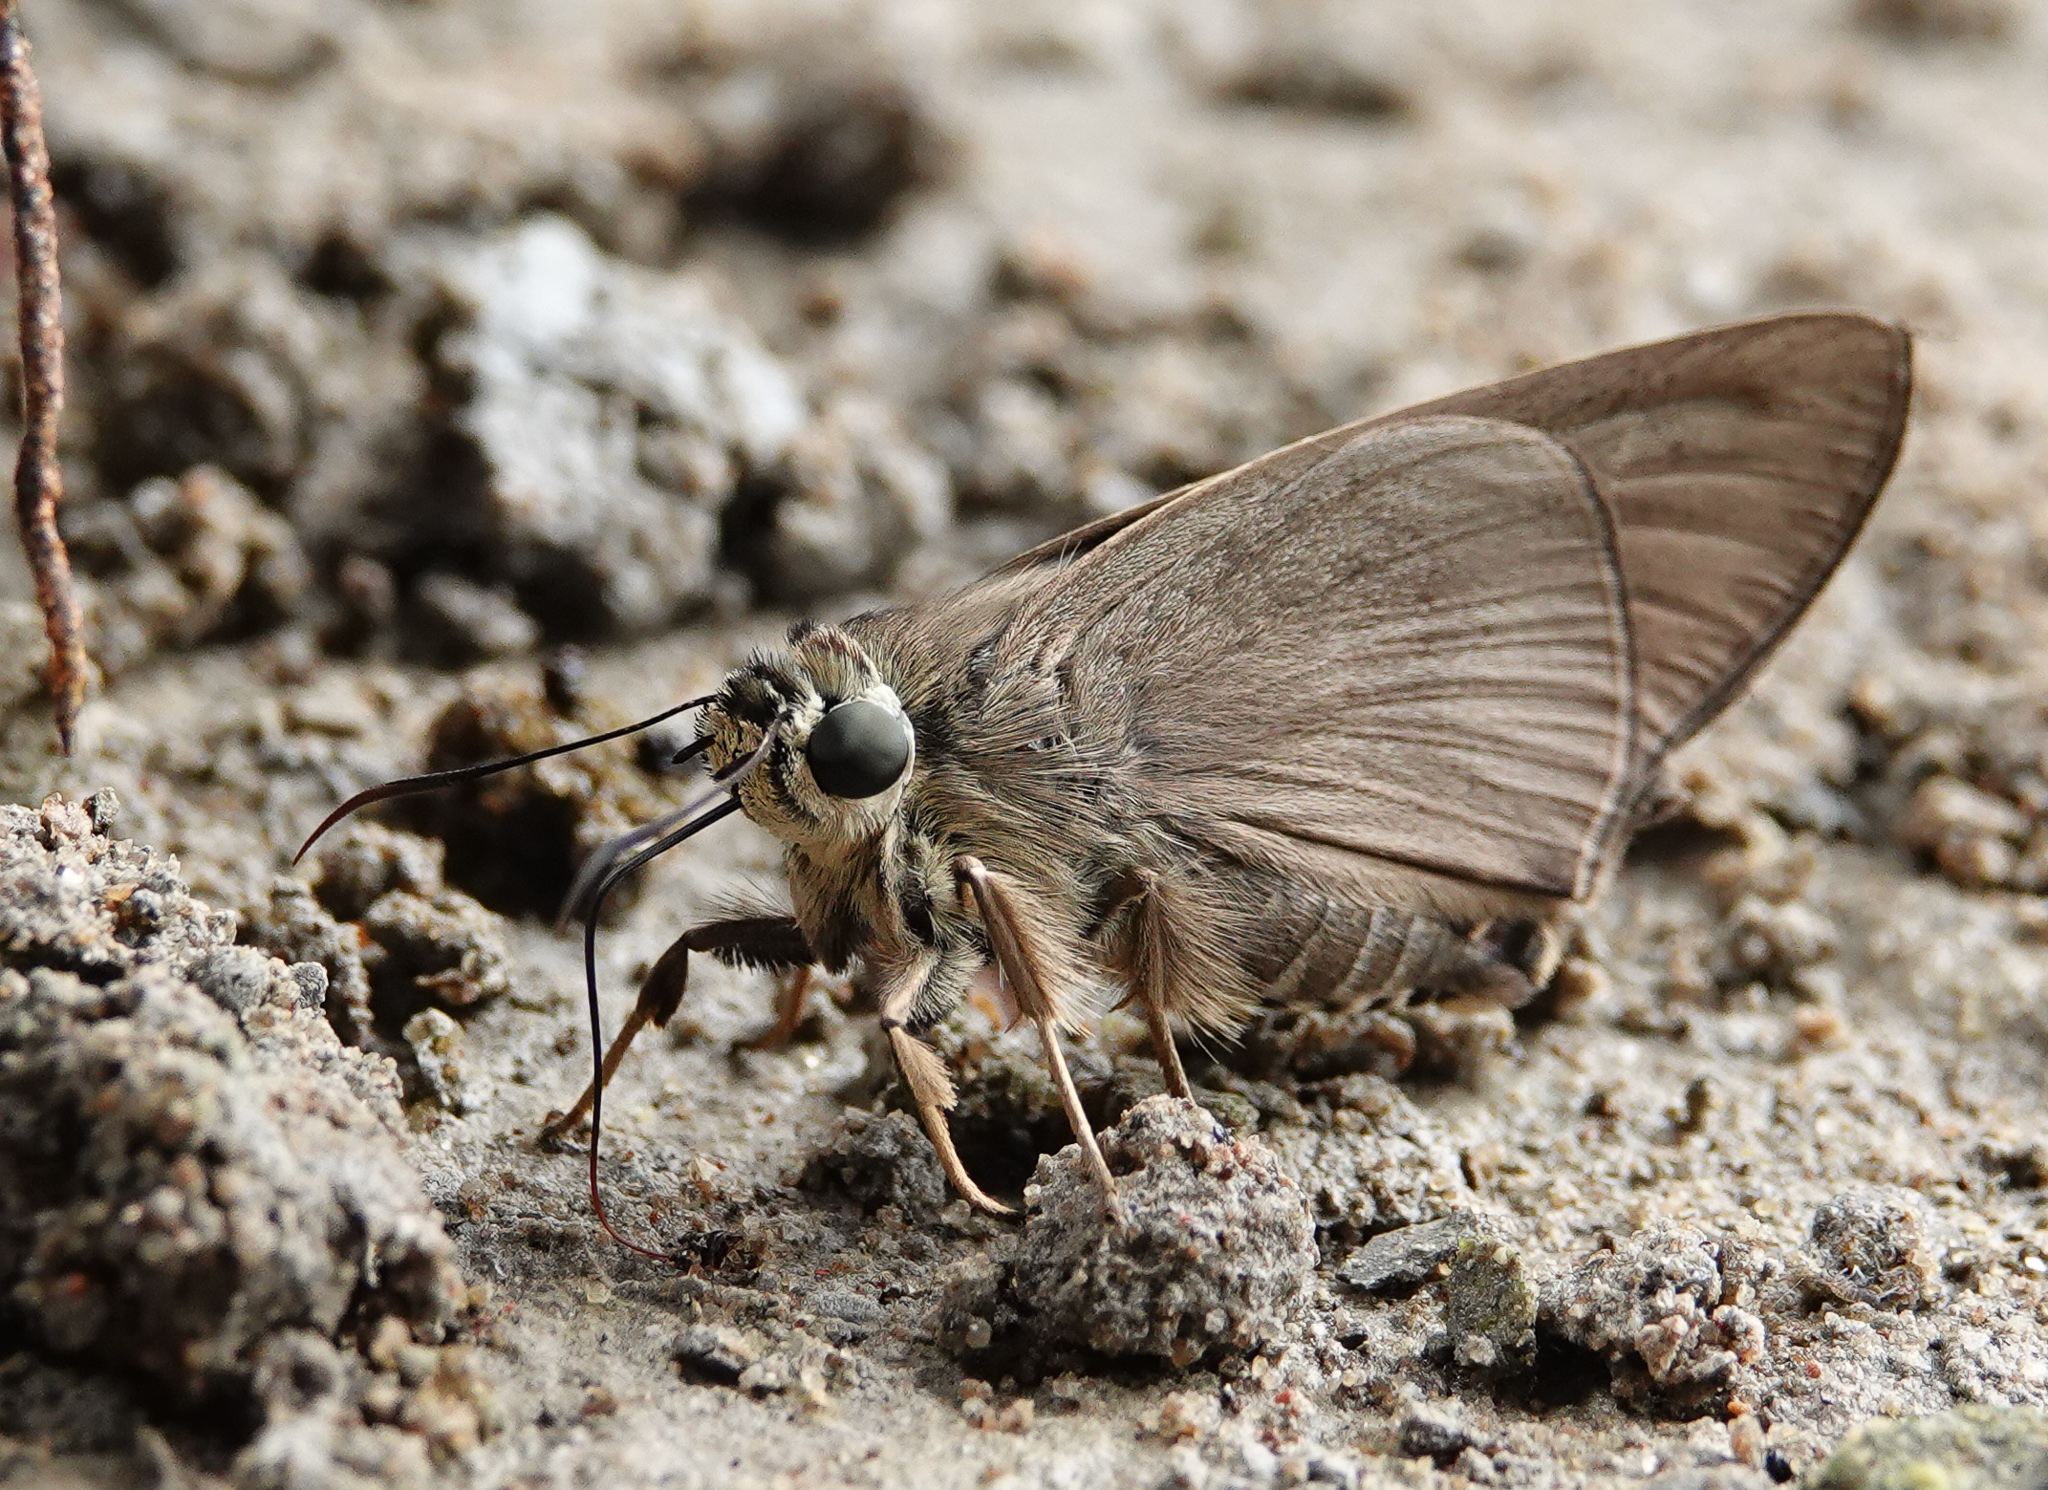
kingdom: Animalia
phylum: Arthropoda
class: Insecta
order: Lepidoptera
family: Hesperiidae
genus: Badamia
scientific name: Badamia exclamationis
